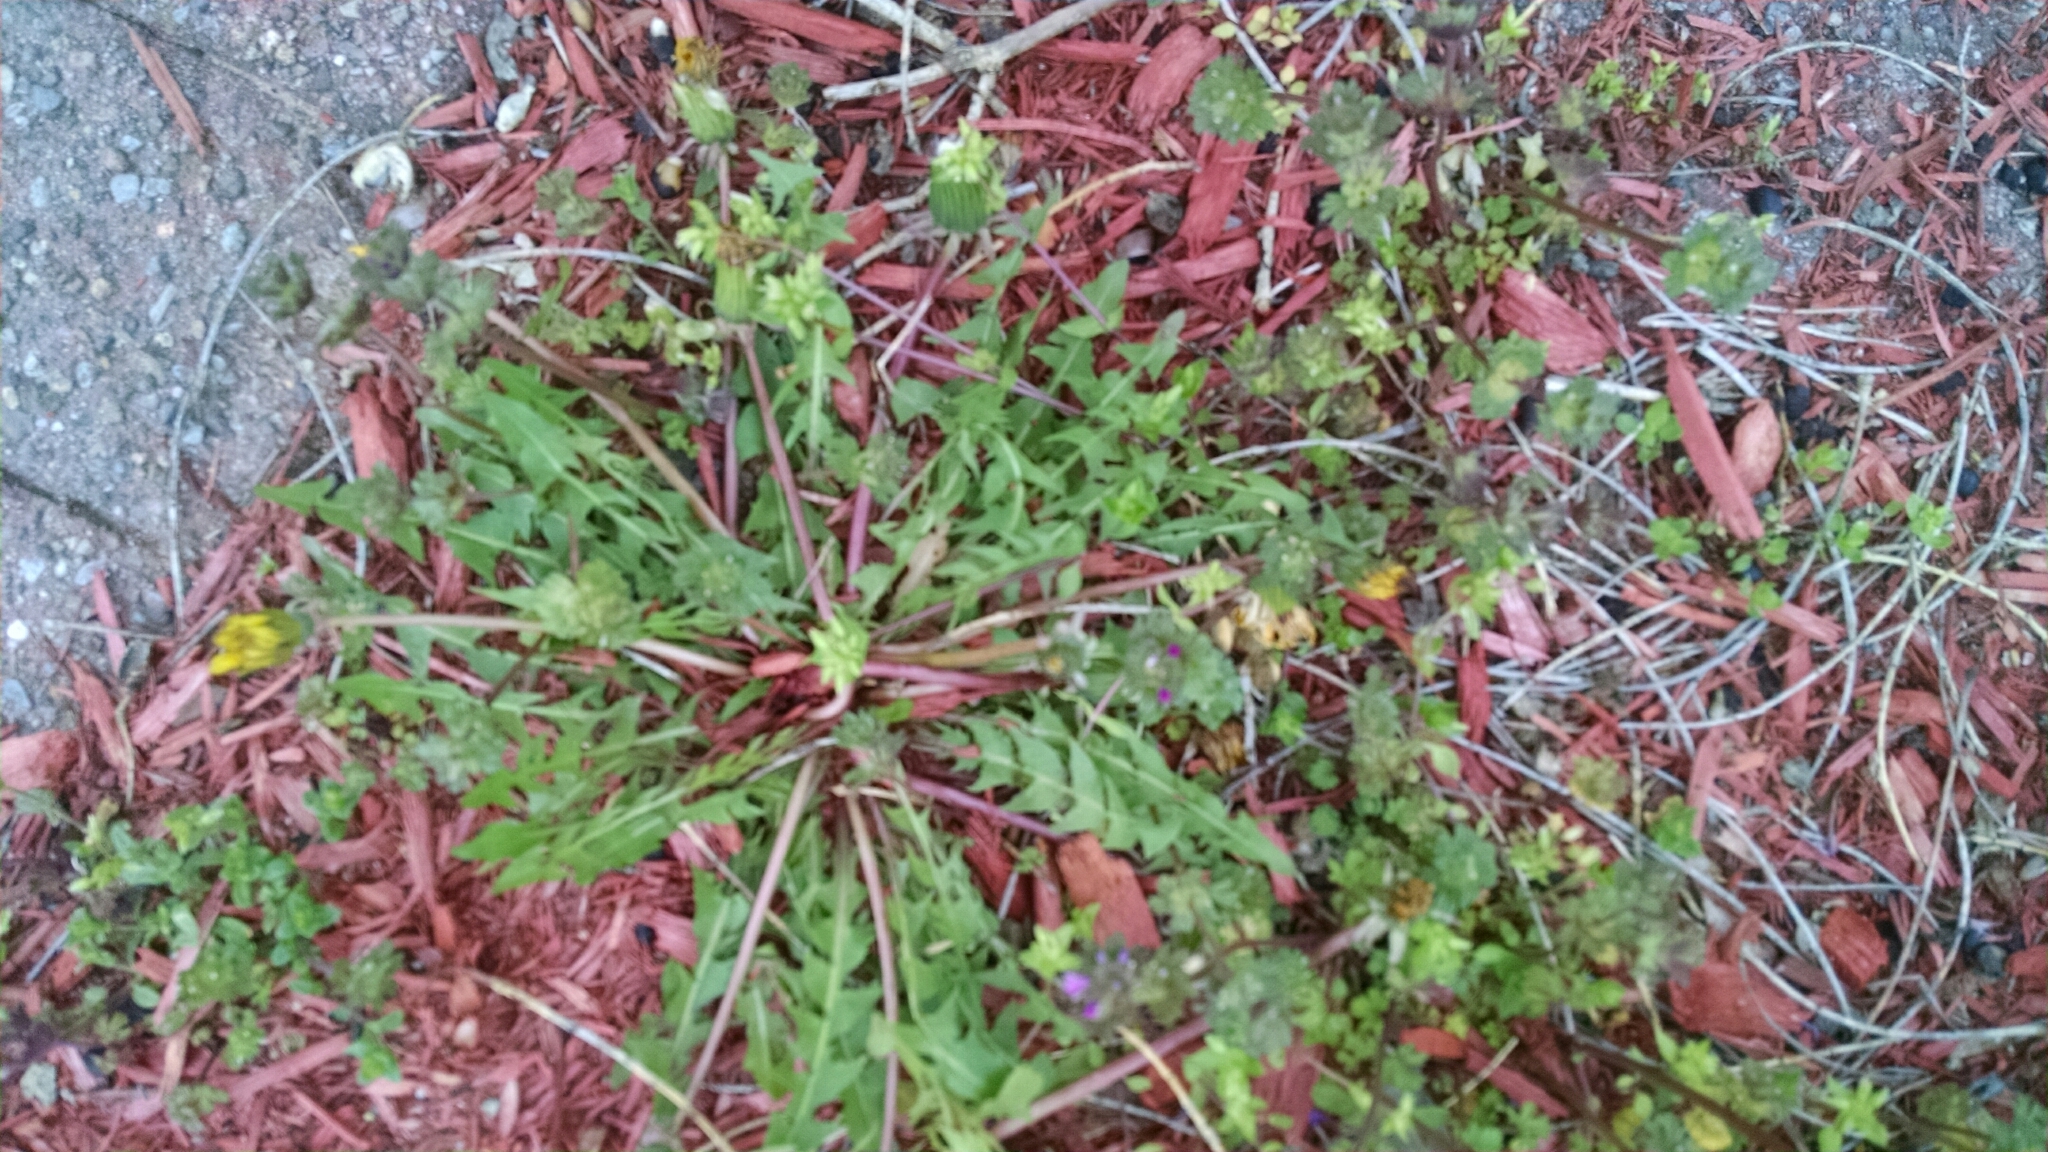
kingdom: Plantae
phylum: Tracheophyta
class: Magnoliopsida
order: Asterales
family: Asteraceae
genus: Taraxacum
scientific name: Taraxacum officinale
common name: Common dandelion
